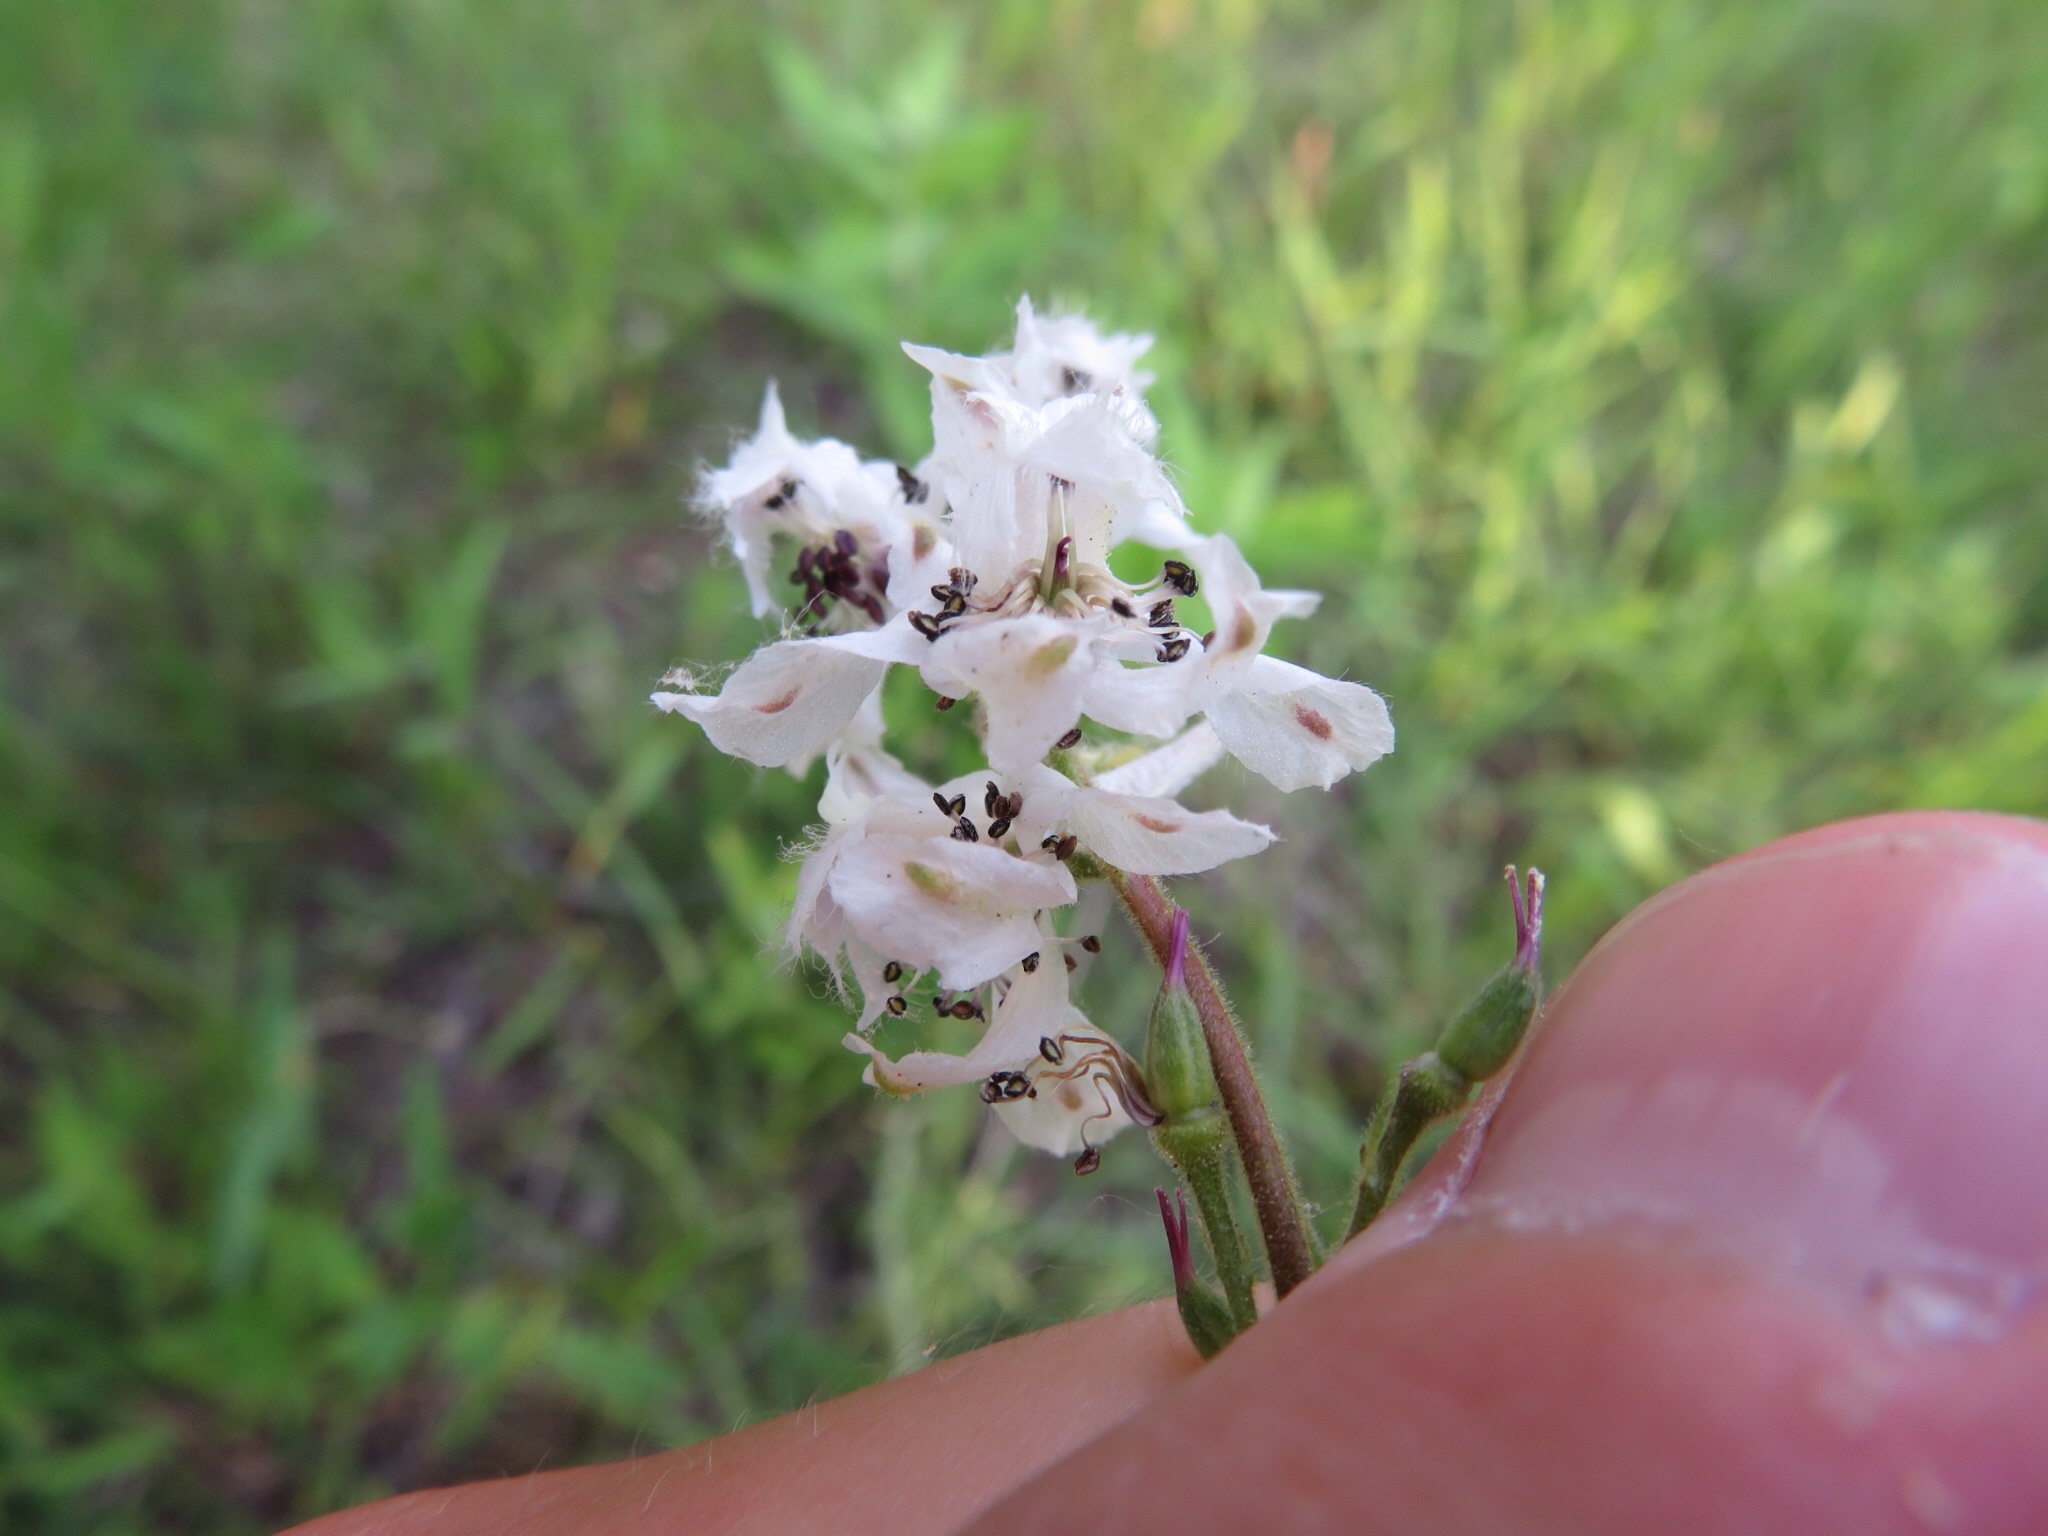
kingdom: Plantae
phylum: Tracheophyta
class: Magnoliopsida
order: Ranunculales
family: Ranunculaceae
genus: Delphinium
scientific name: Delphinium carolinianum
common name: Carolina larkspur
